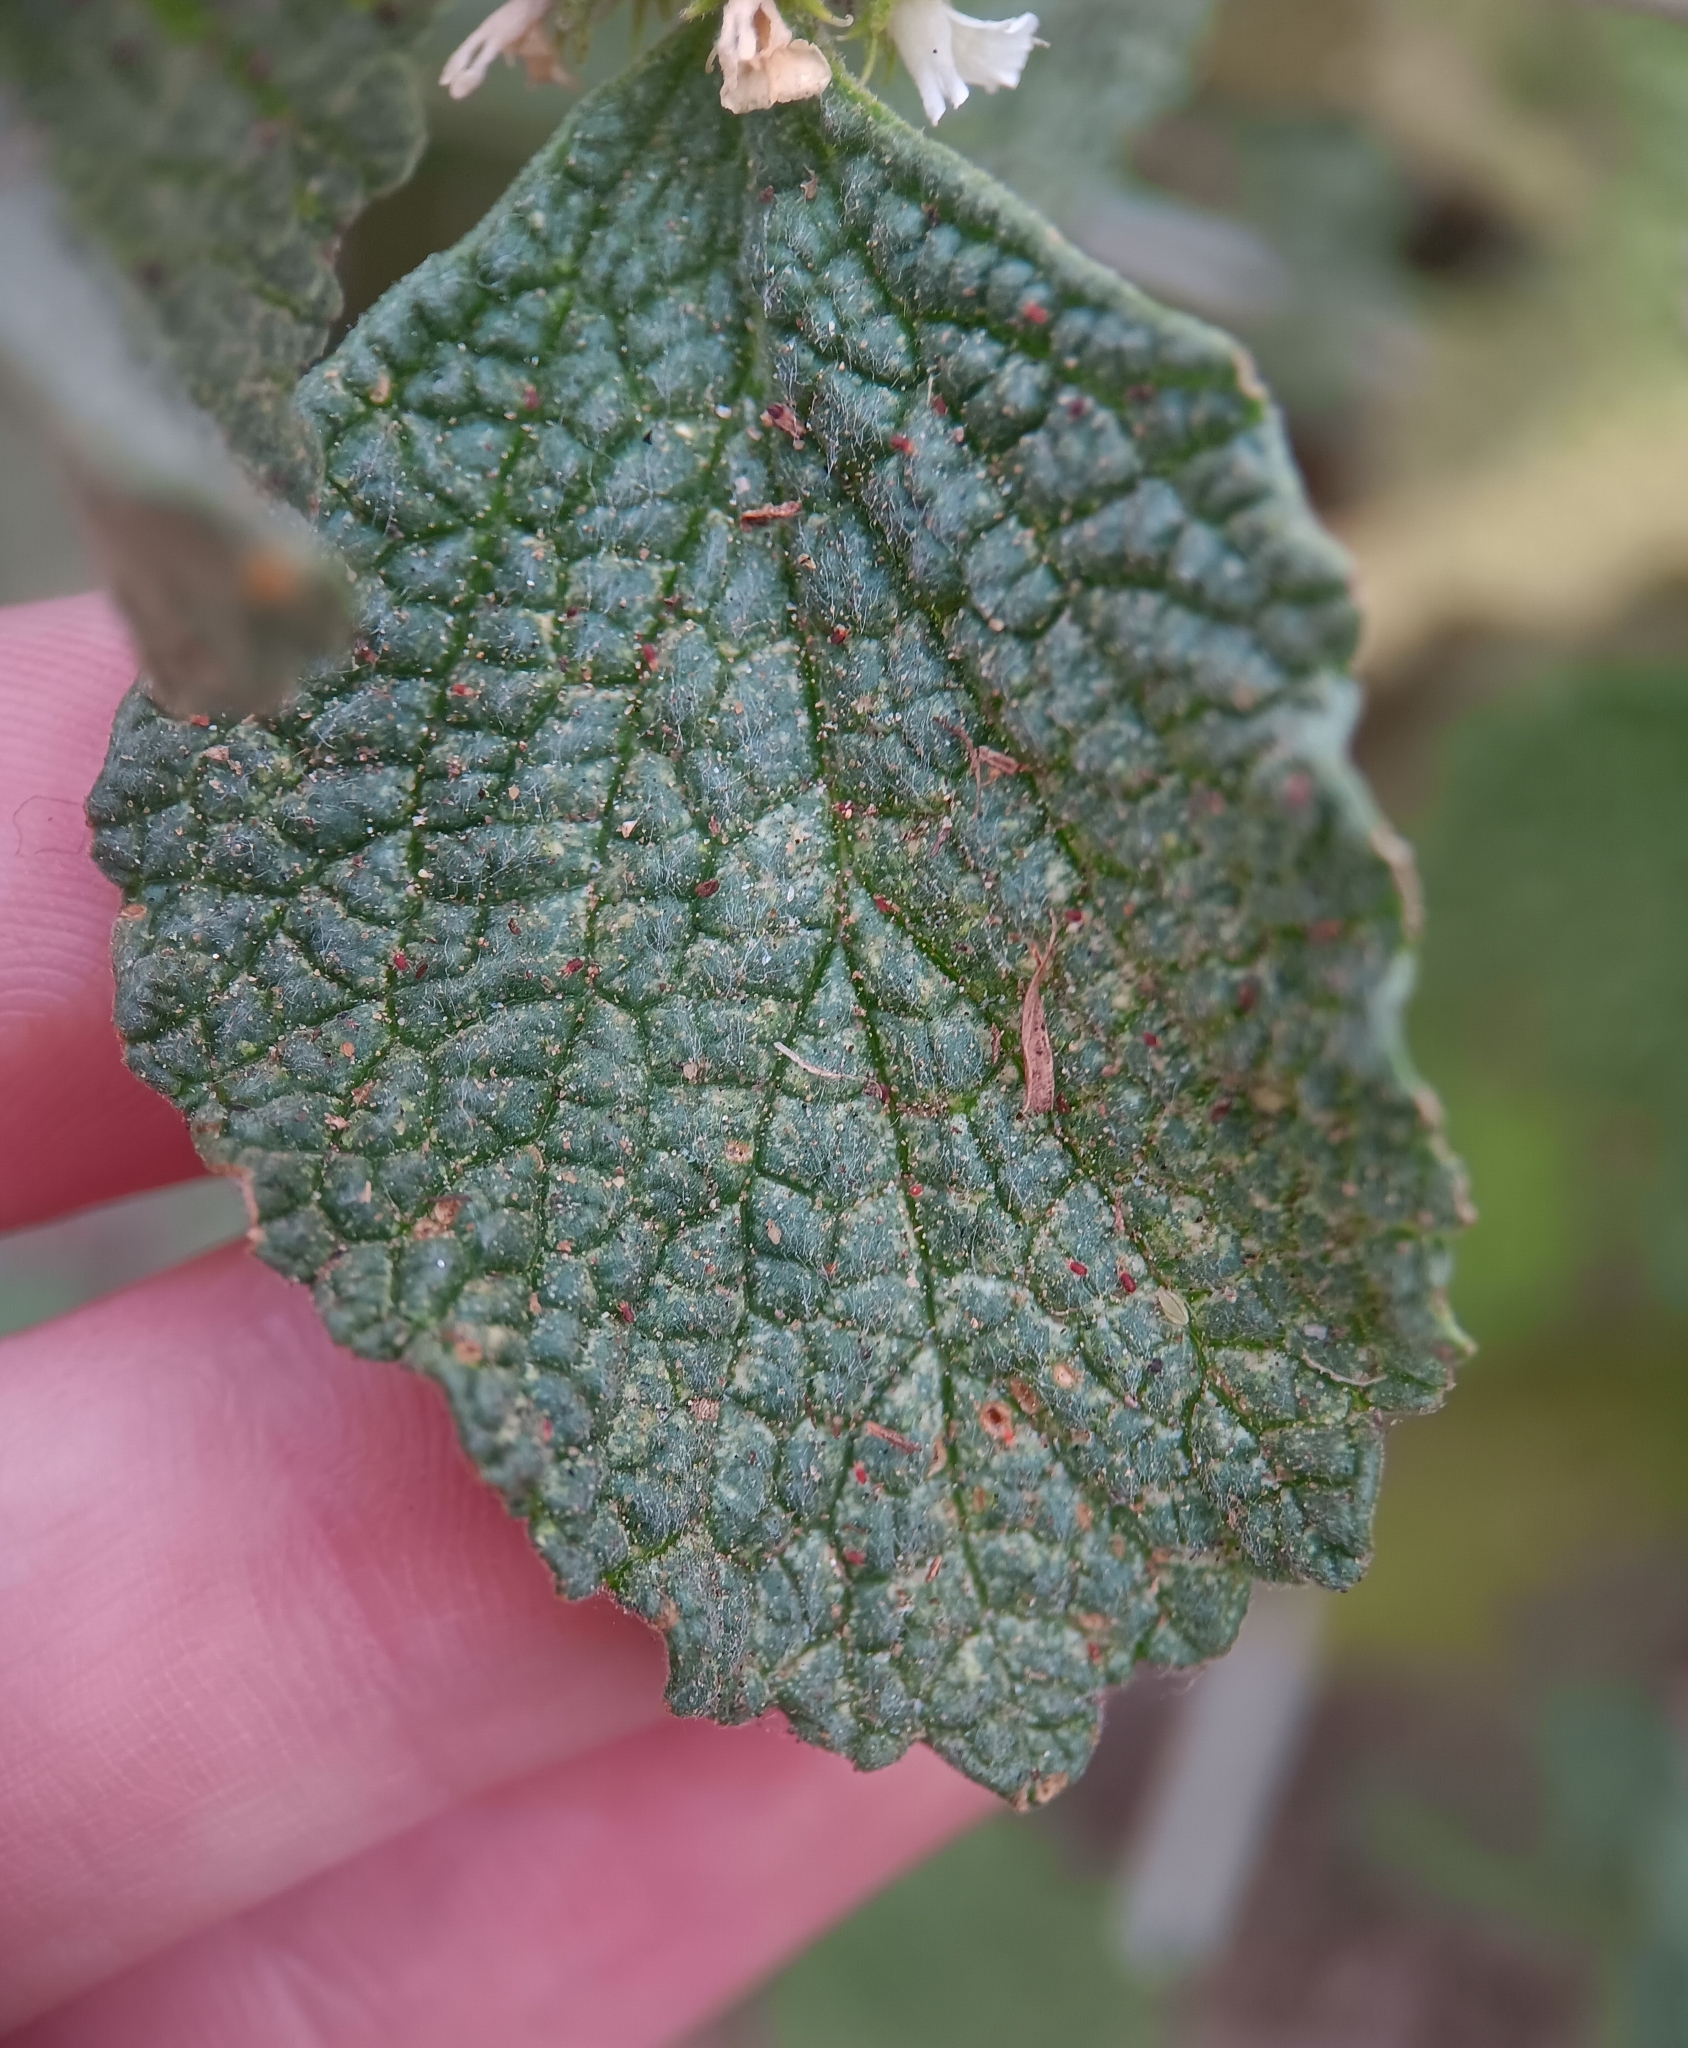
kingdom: Plantae
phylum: Tracheophyta
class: Magnoliopsida
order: Lamiales
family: Lamiaceae
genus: Marrubium
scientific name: Marrubium vulgare
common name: Horehound
